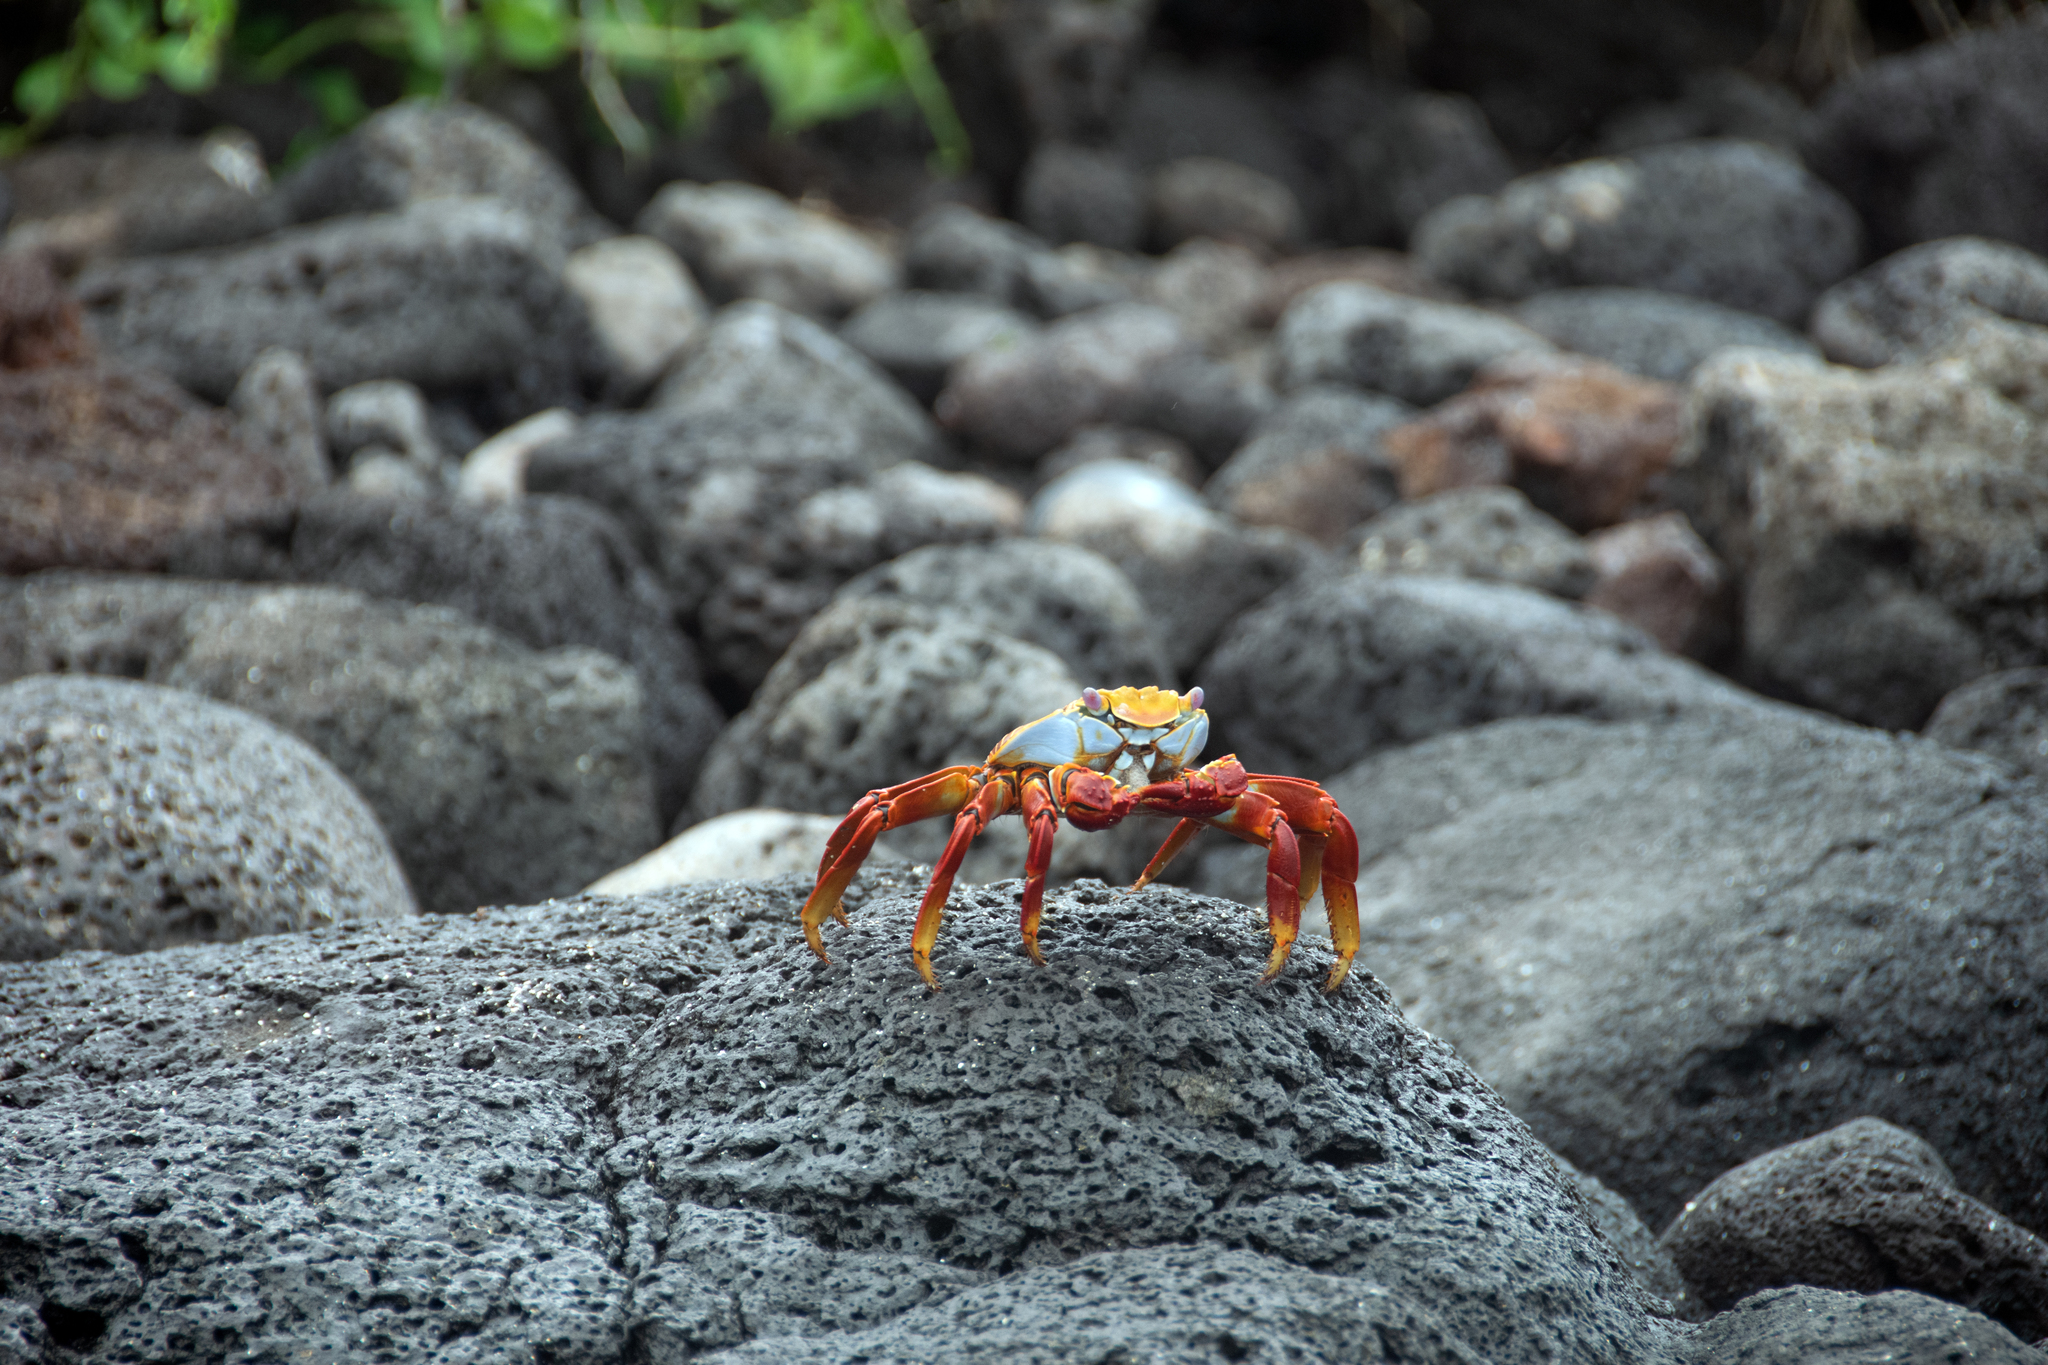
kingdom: Animalia
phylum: Arthropoda
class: Malacostraca
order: Decapoda
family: Grapsidae
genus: Grapsus
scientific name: Grapsus grapsus
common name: Sally lightfoot
